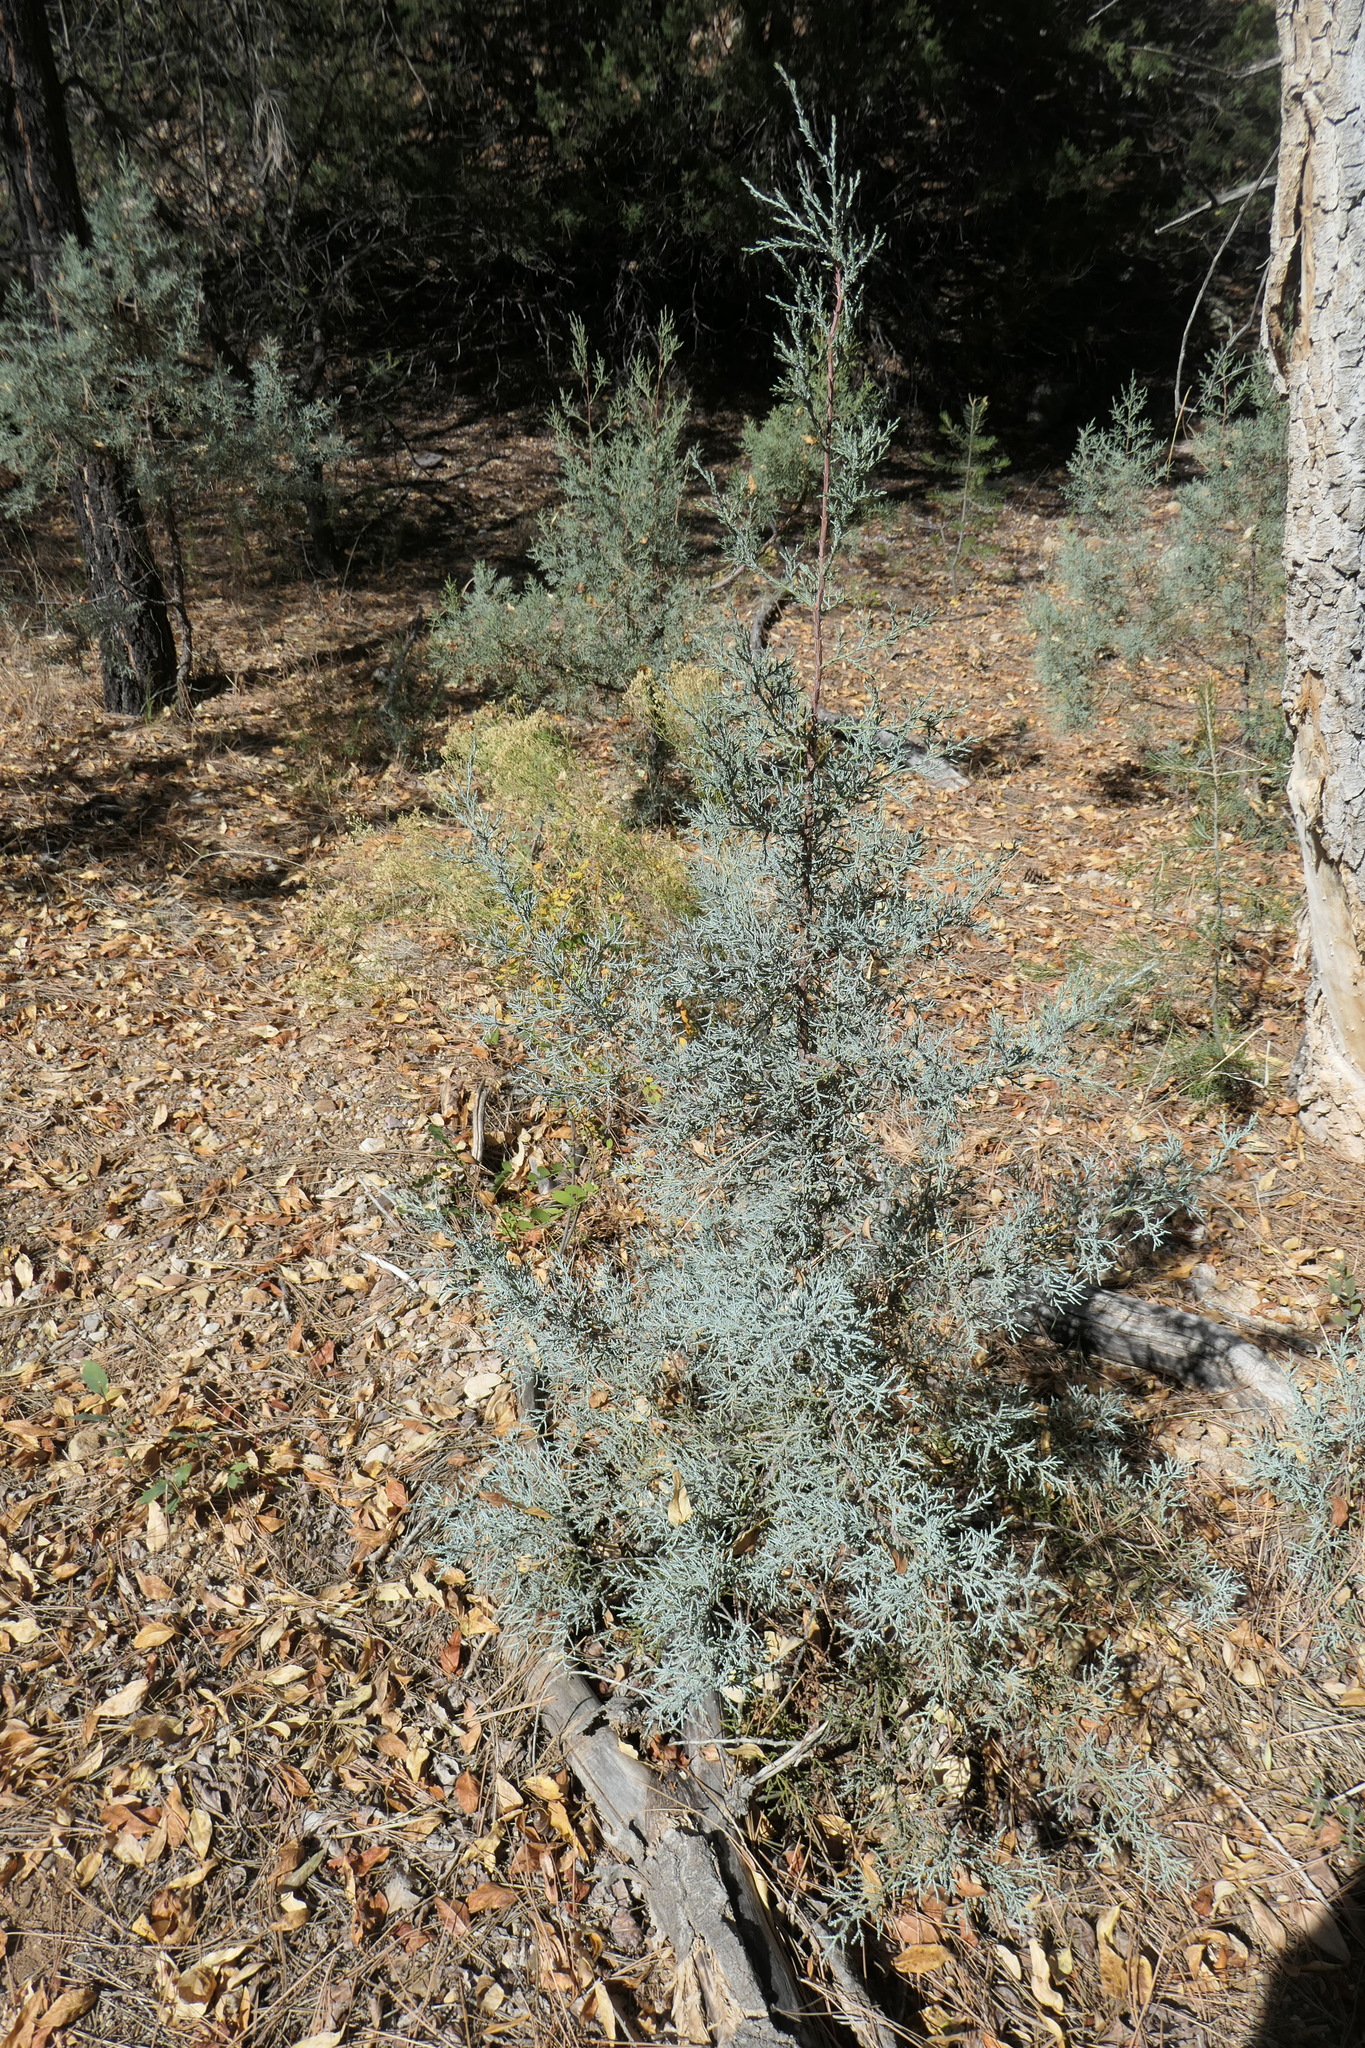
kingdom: Plantae
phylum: Tracheophyta
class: Pinopsida
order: Pinales
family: Cupressaceae
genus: Juniperus
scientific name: Juniperus deppeana
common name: Alligator juniper
